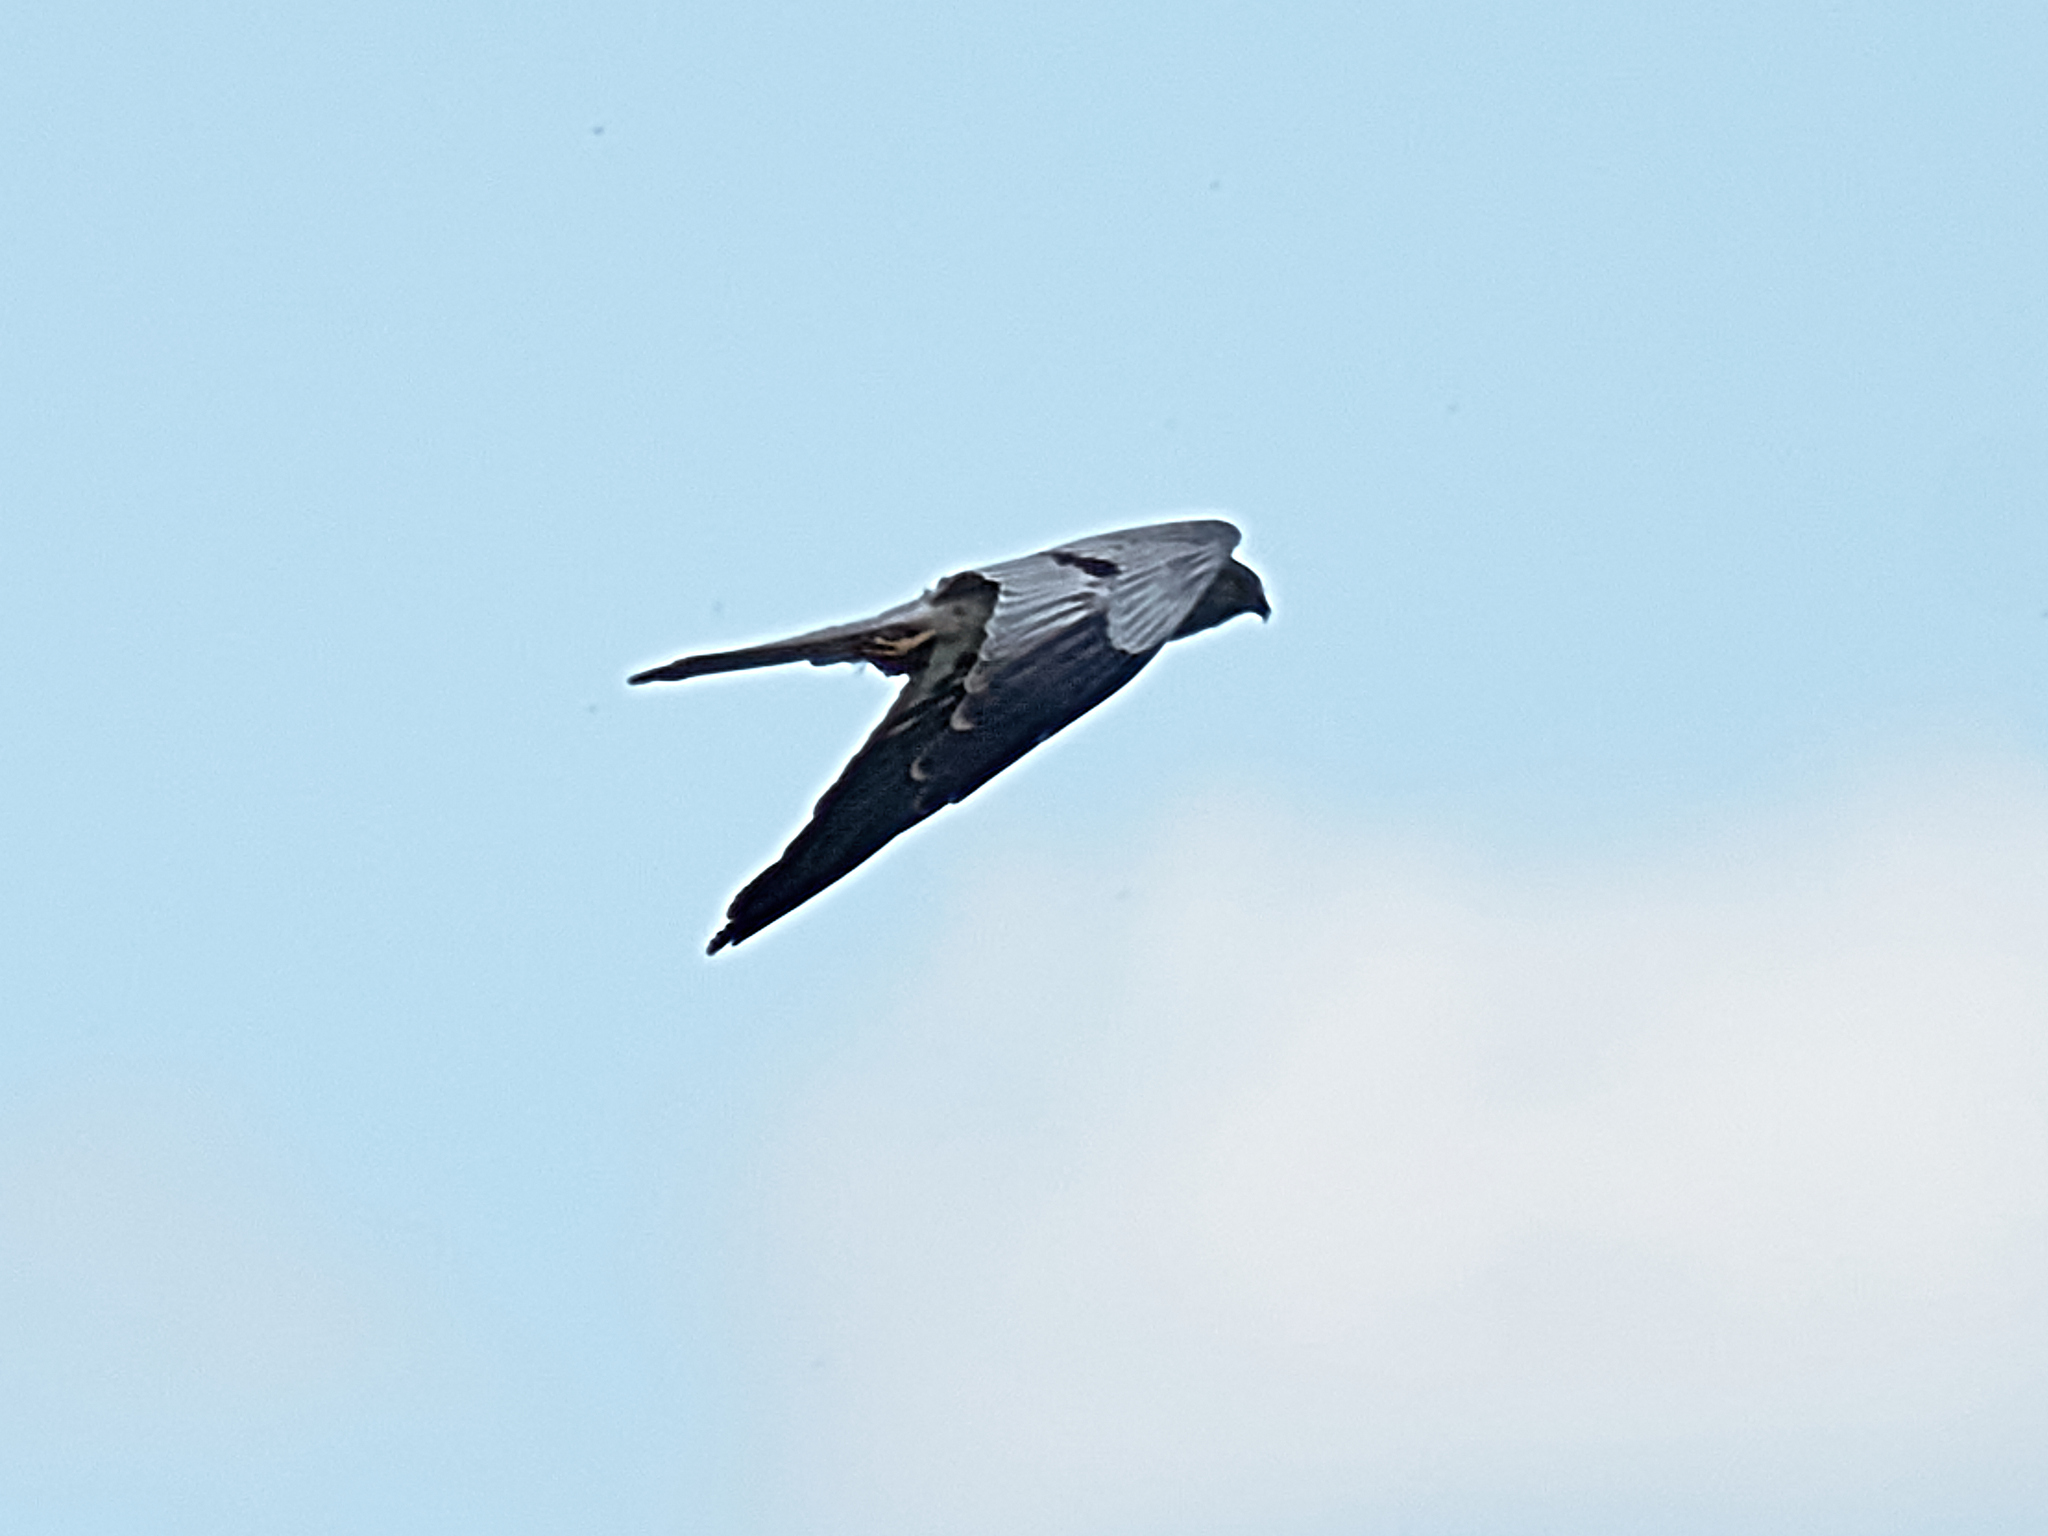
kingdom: Animalia
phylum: Chordata
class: Aves
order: Accipitriformes
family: Accipitridae
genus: Circus
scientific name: Circus pygargus
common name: Montagu's harrier
